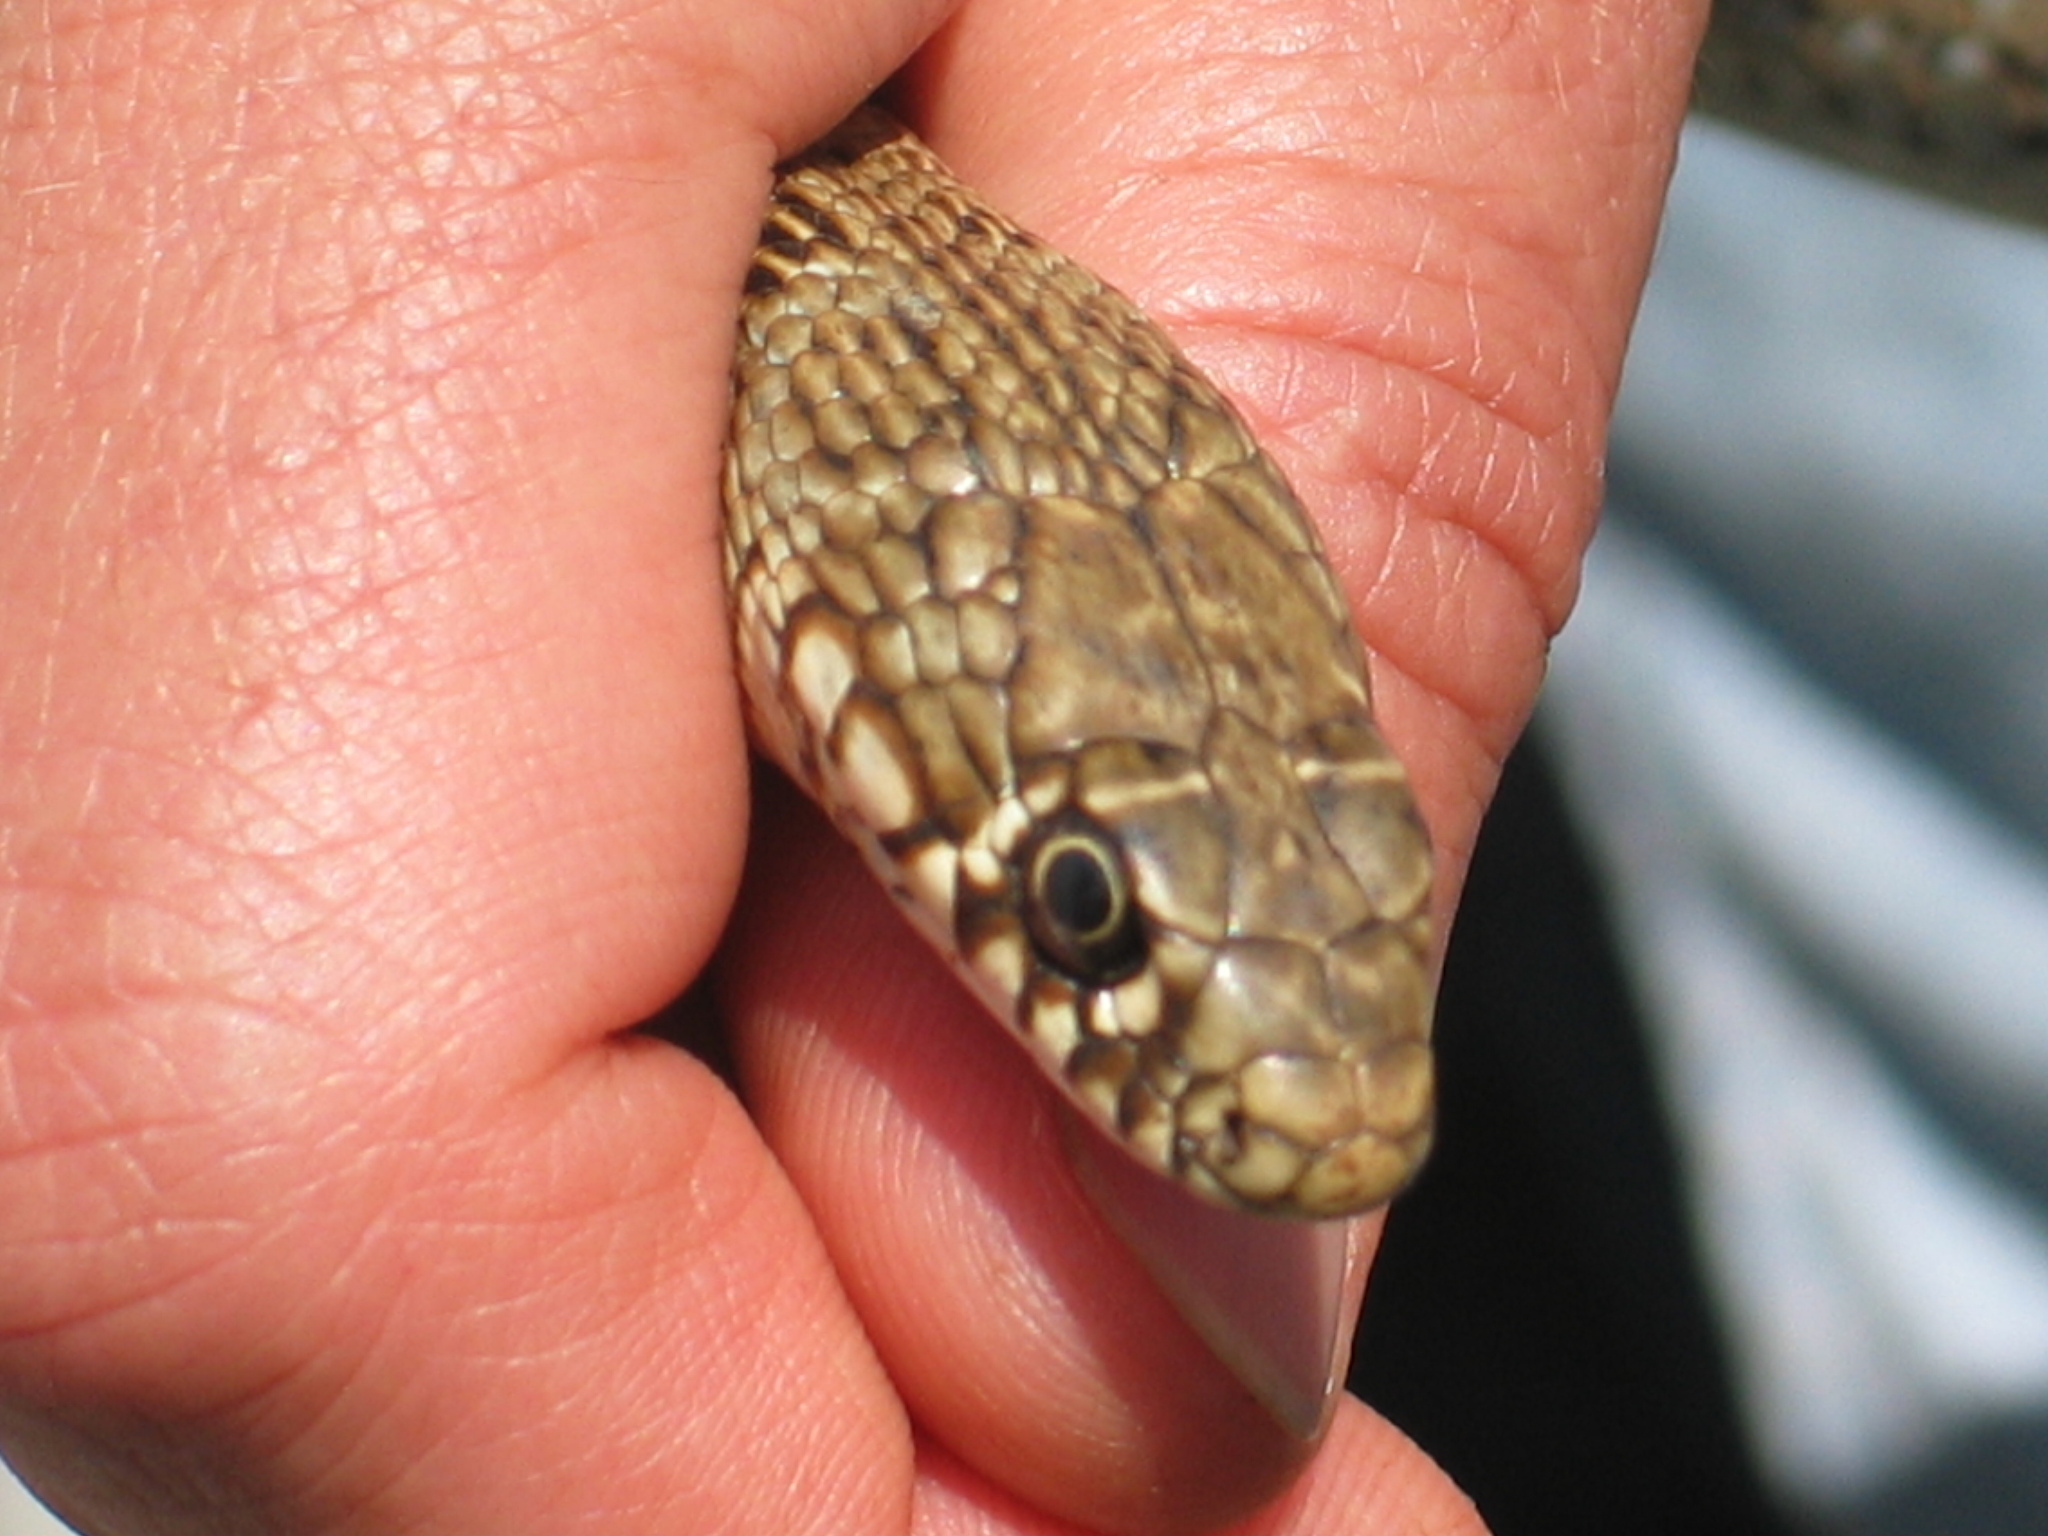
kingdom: Animalia
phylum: Chordata
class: Squamata
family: Colubridae
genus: Hierophis
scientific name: Hierophis gemonensis
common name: Balkan whip snake
